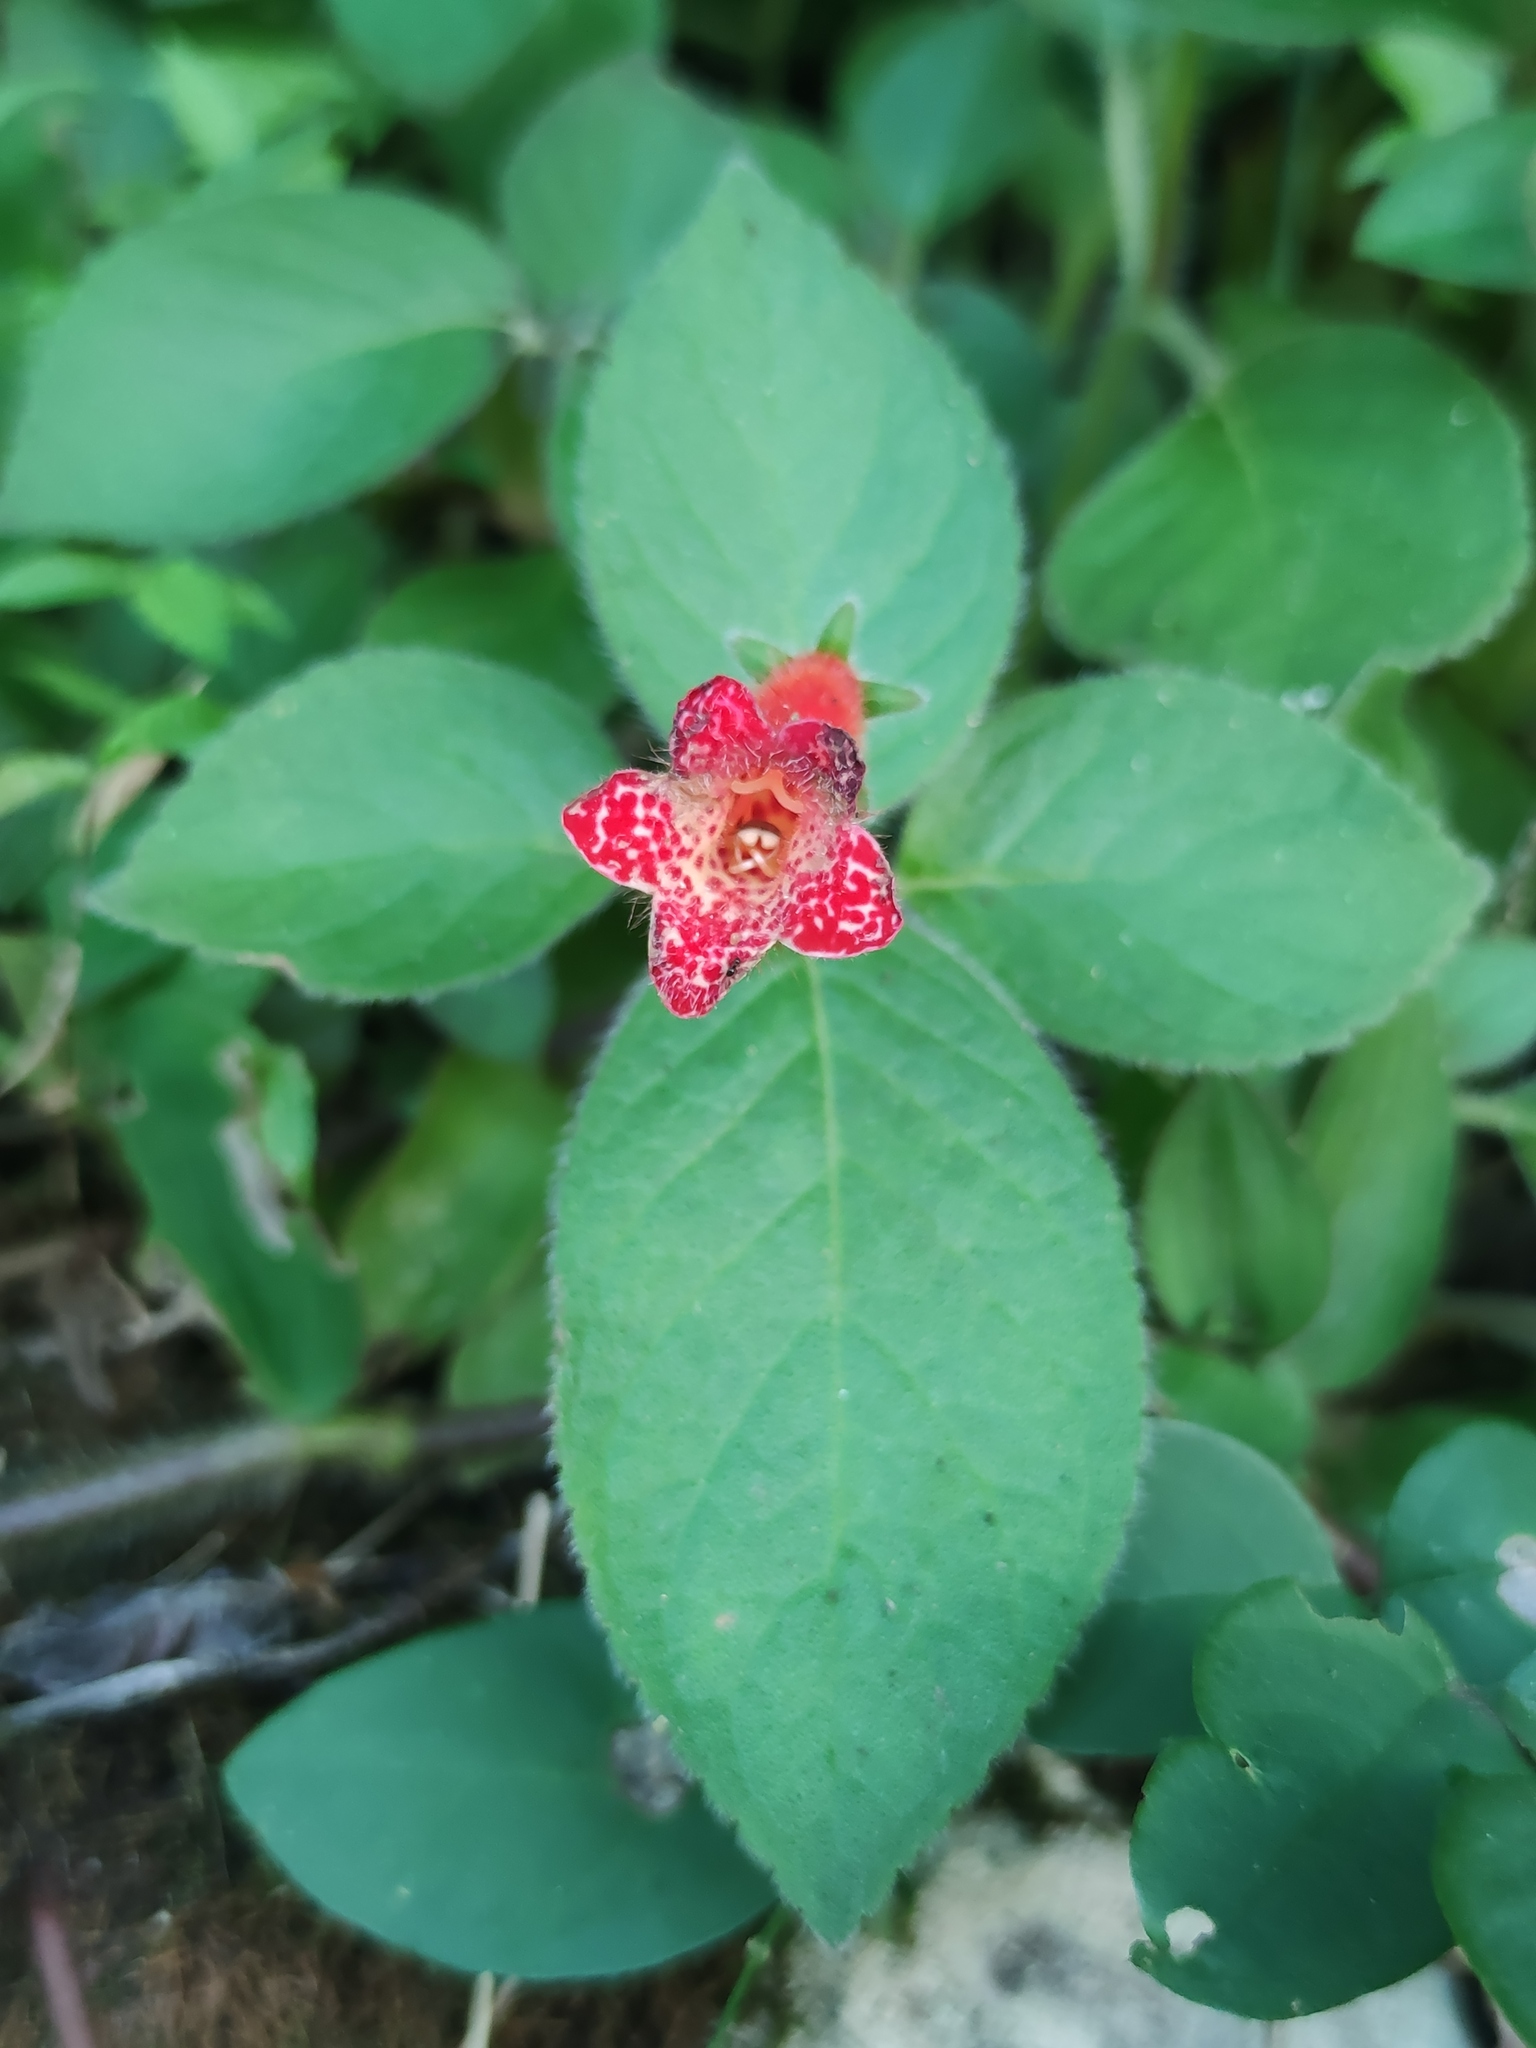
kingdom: Plantae
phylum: Tracheophyta
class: Magnoliopsida
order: Lamiales
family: Gesneriaceae
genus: Kohleria
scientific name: Kohleria rugata
